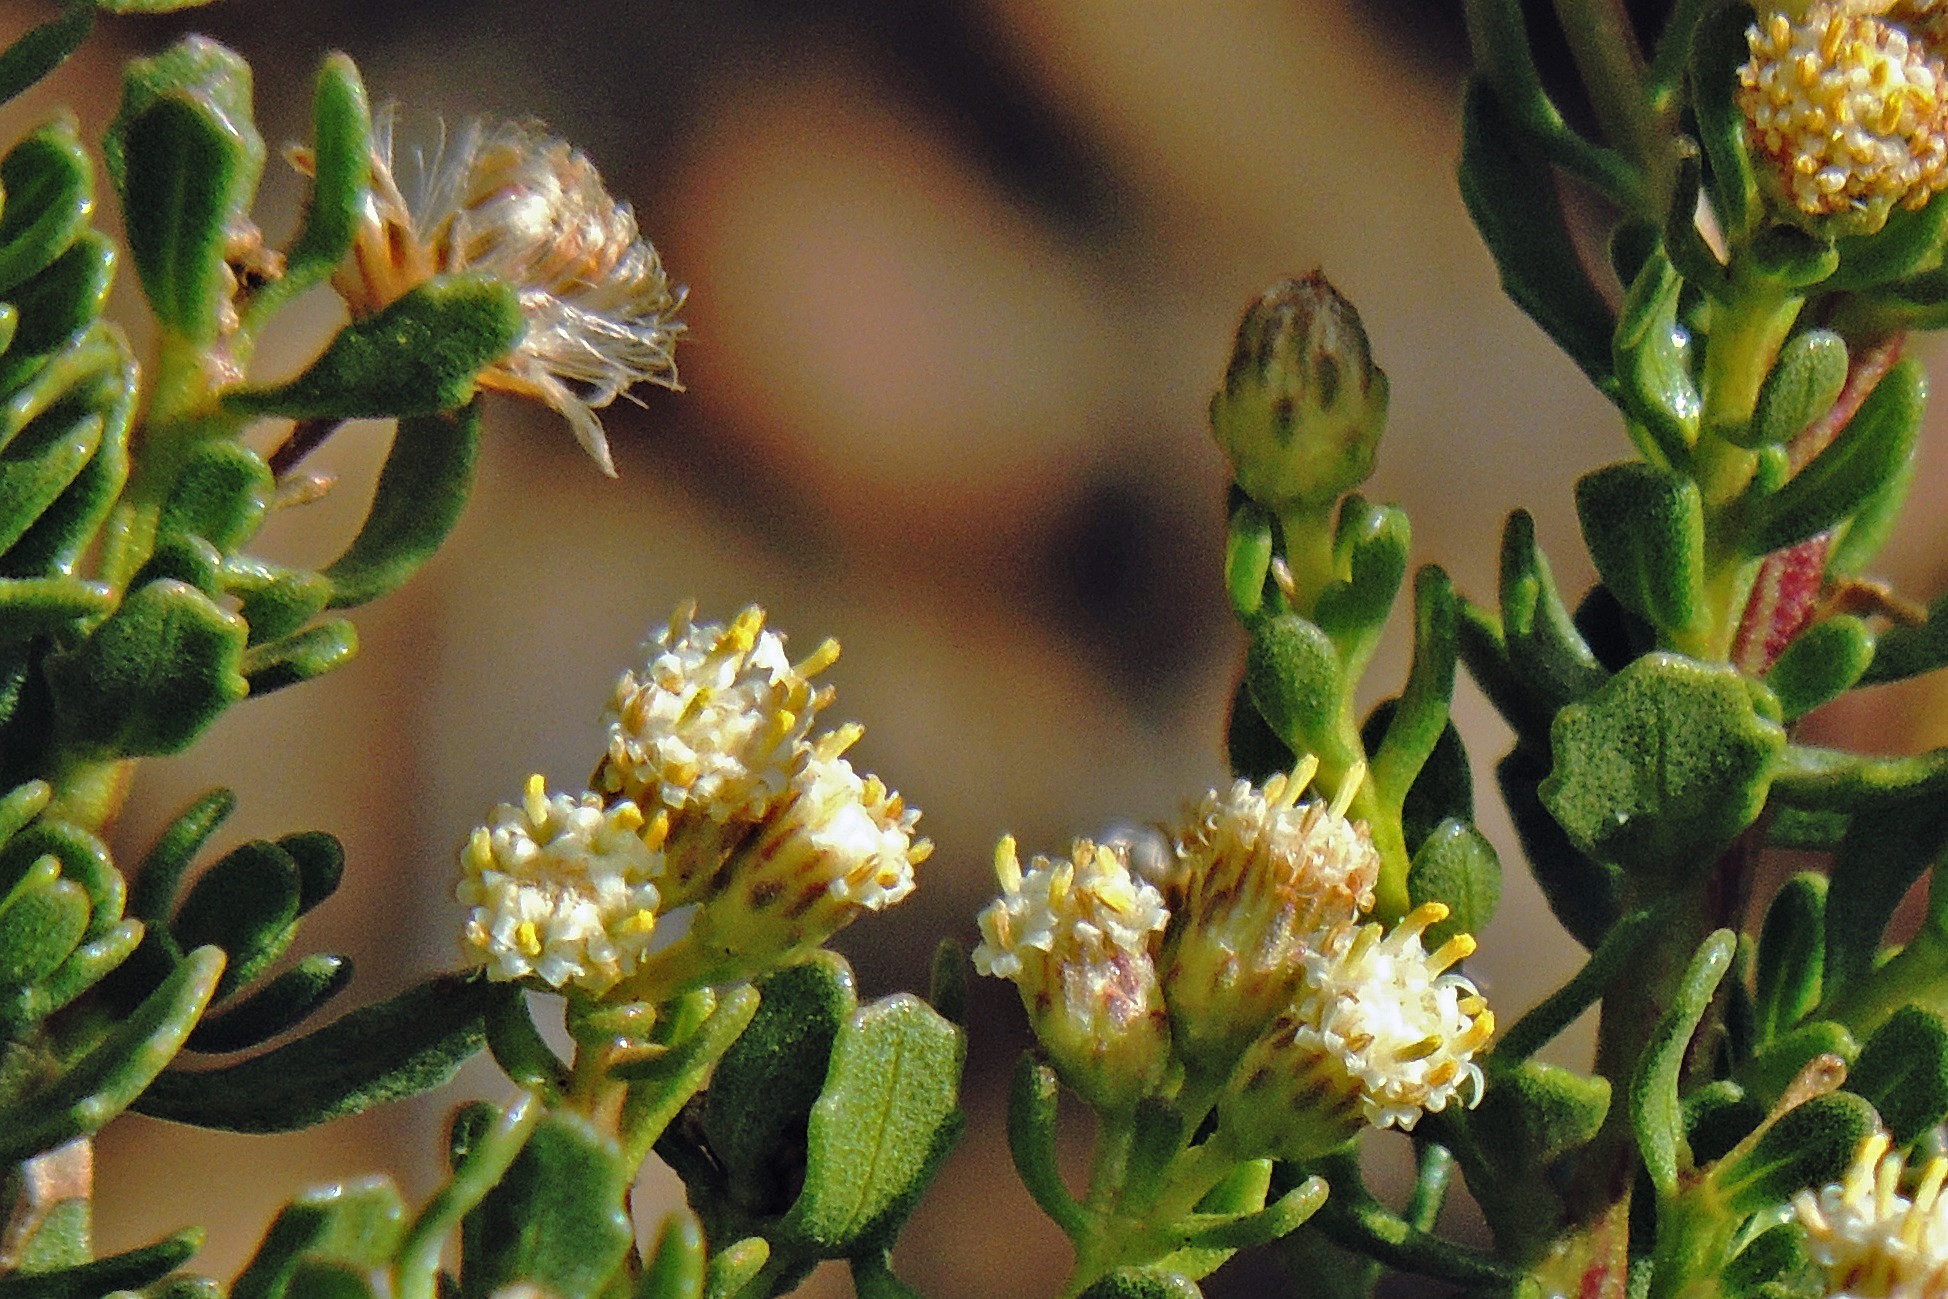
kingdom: Plantae
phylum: Tracheophyta
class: Magnoliopsida
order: Asterales
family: Asteraceae
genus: Baccharis
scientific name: Baccharis neaei
